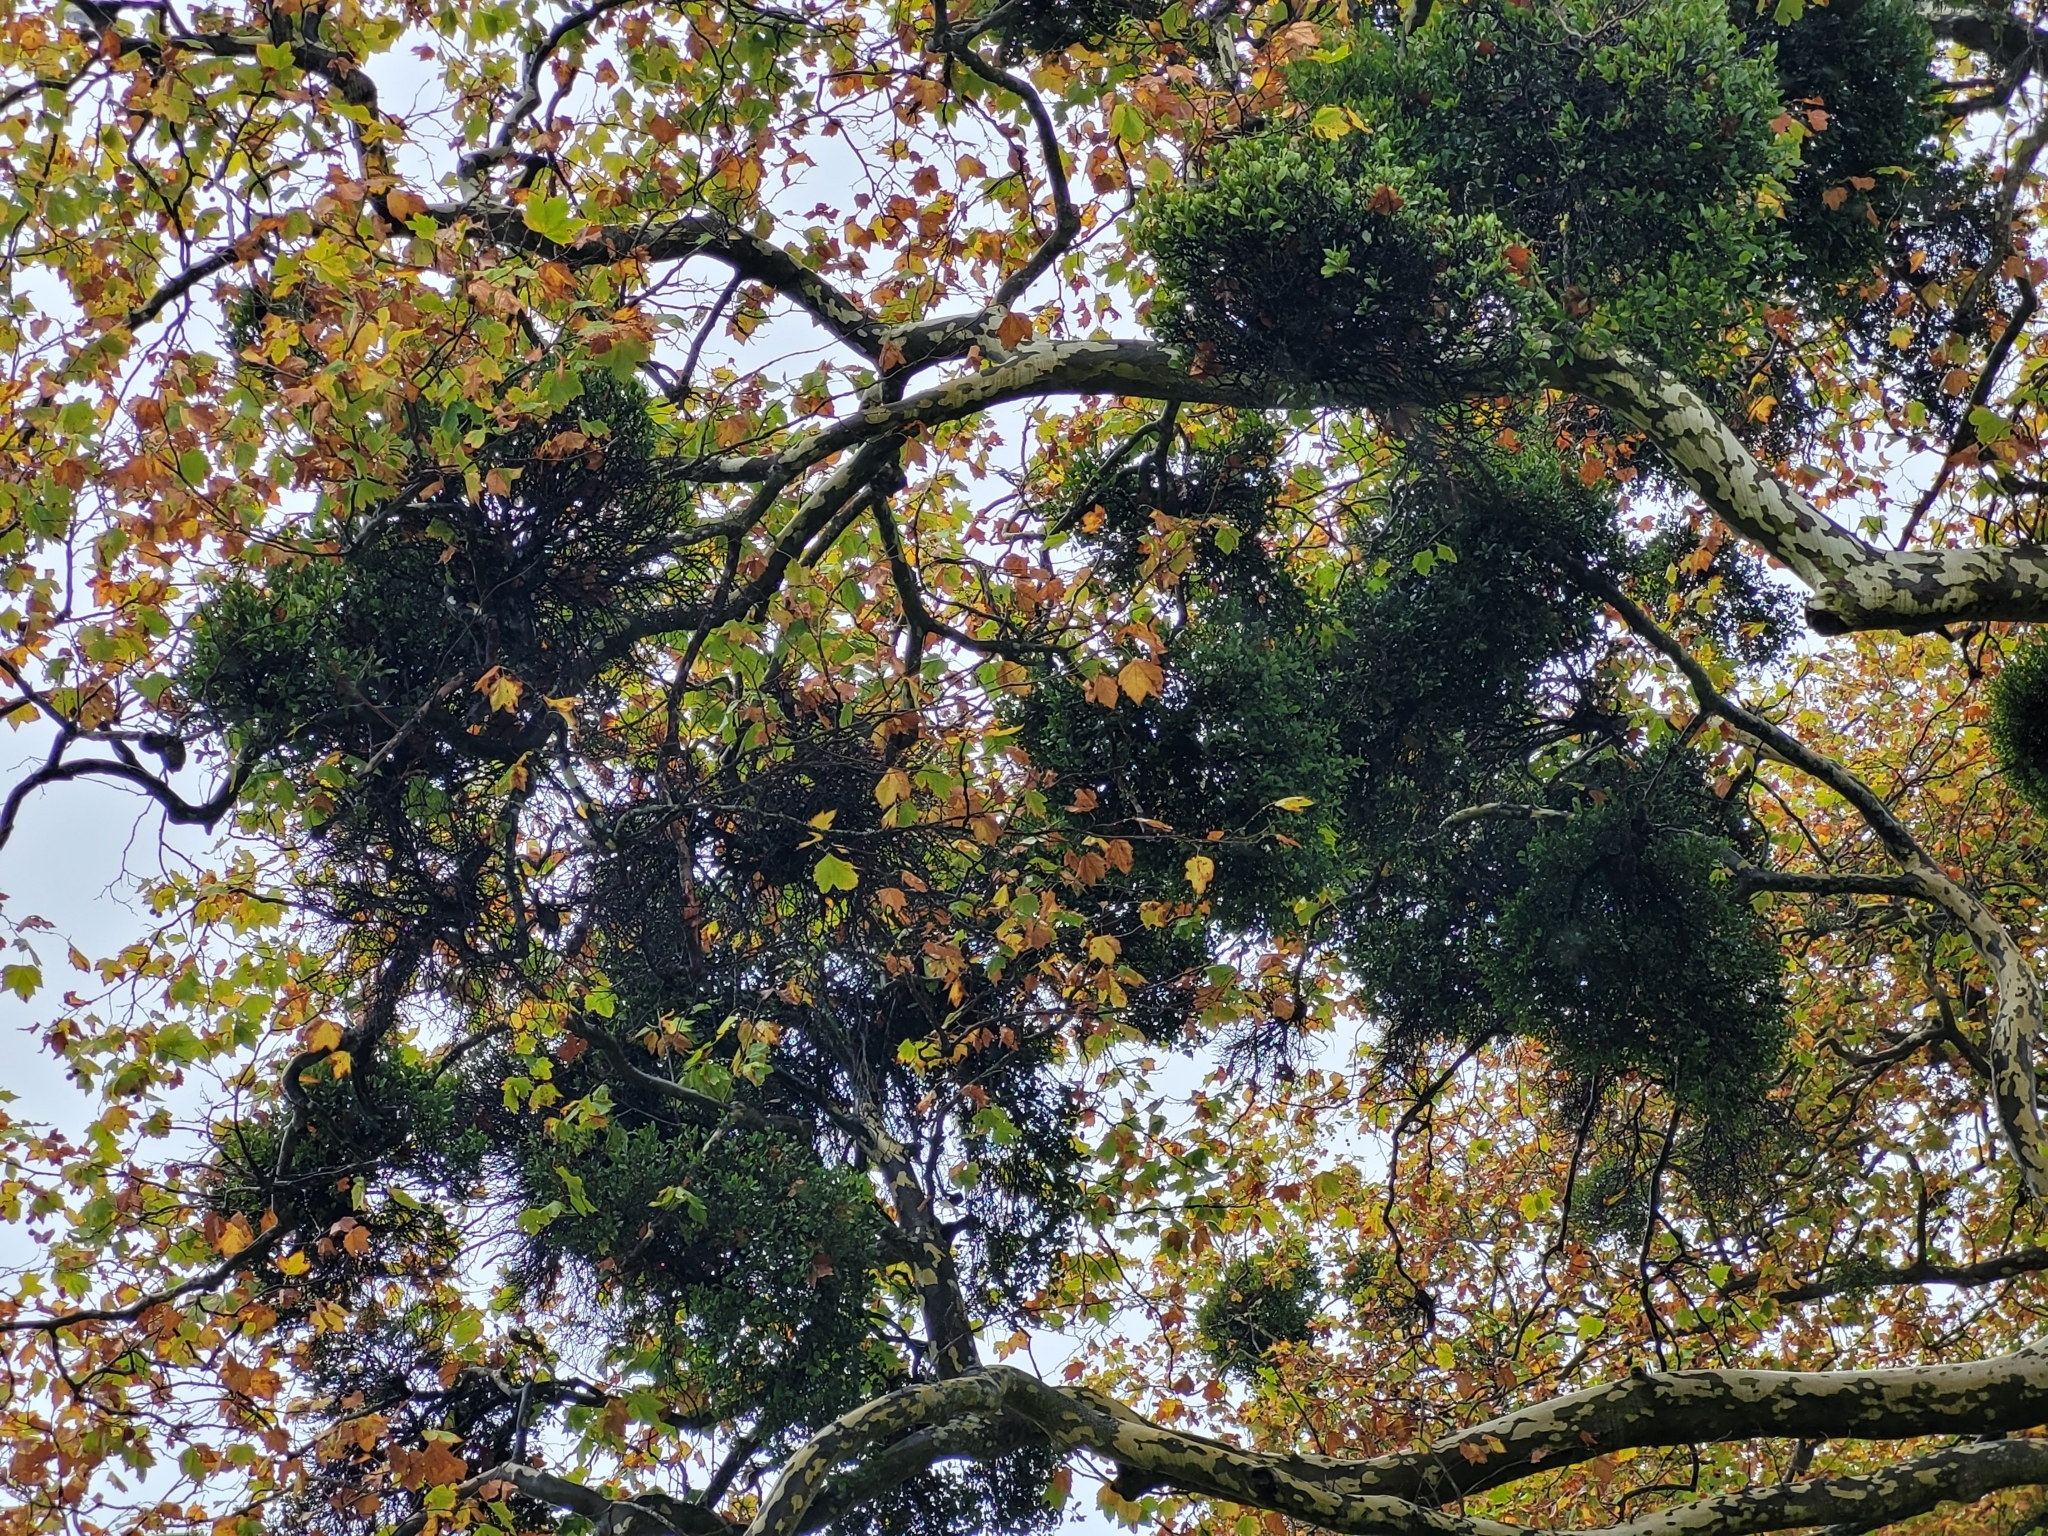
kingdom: Plantae
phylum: Tracheophyta
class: Magnoliopsida
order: Santalales
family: Loranthaceae
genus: Ileostylus
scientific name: Ileostylus micranthus
